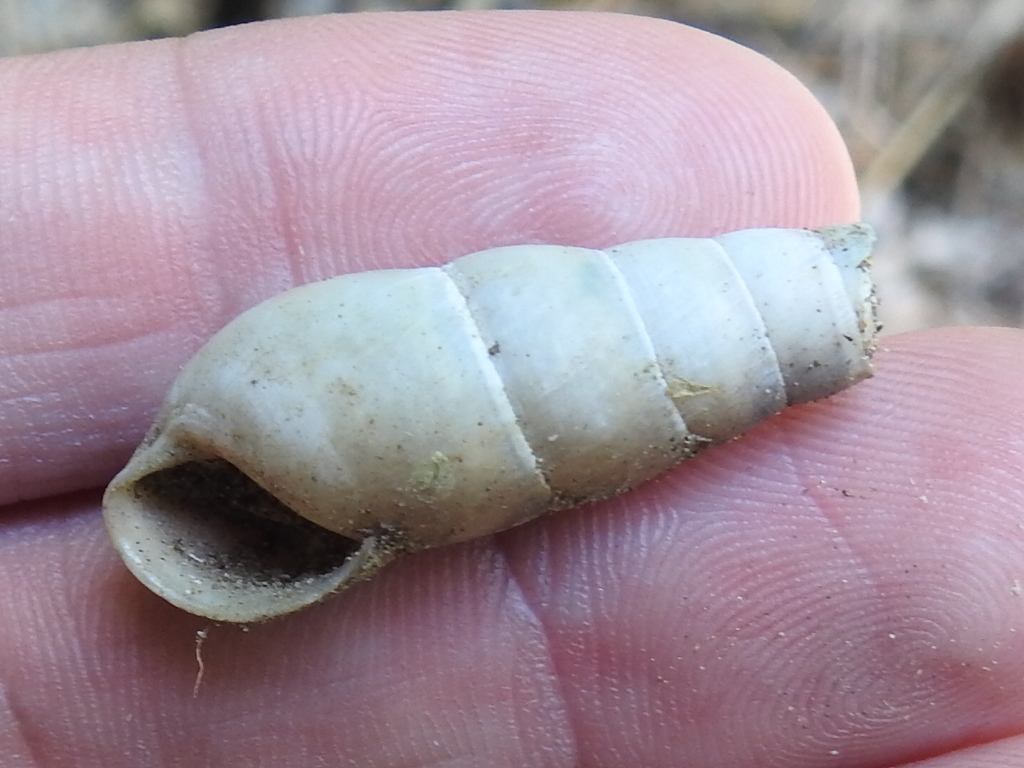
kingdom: Animalia
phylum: Mollusca
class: Gastropoda
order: Stylommatophora
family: Achatinidae
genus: Rumina
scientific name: Rumina decollata
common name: Decollate snail
